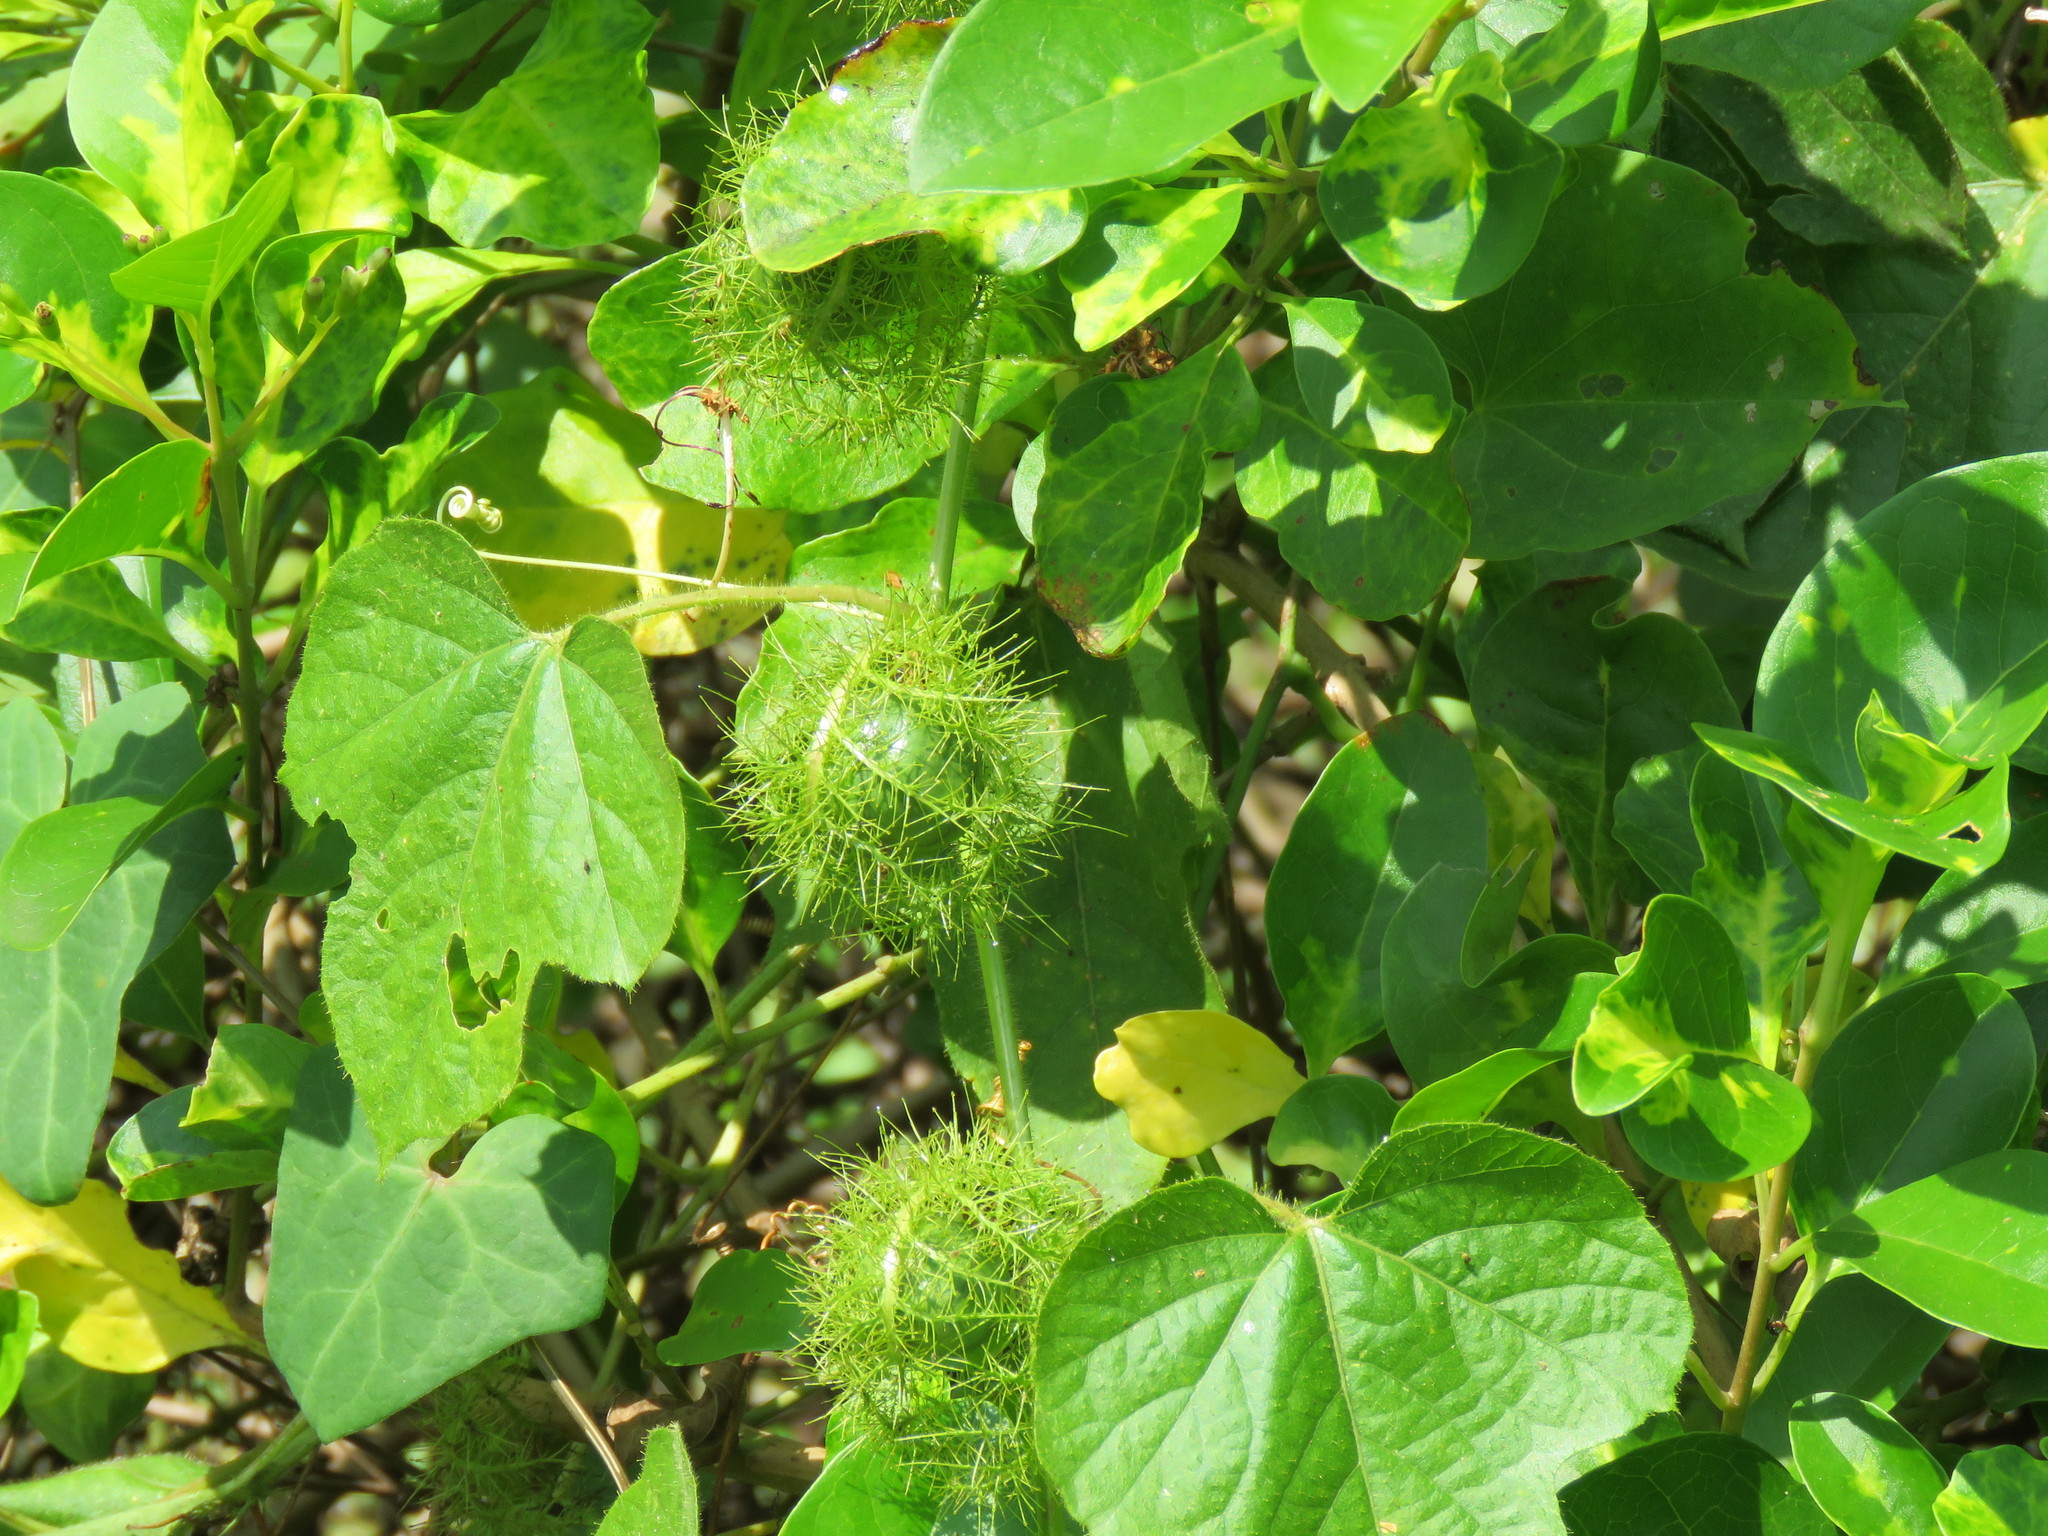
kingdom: Plantae
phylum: Tracheophyta
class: Magnoliopsida
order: Malpighiales
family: Passifloraceae
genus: Passiflora
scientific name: Passiflora foetida
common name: Fetid passionflower
